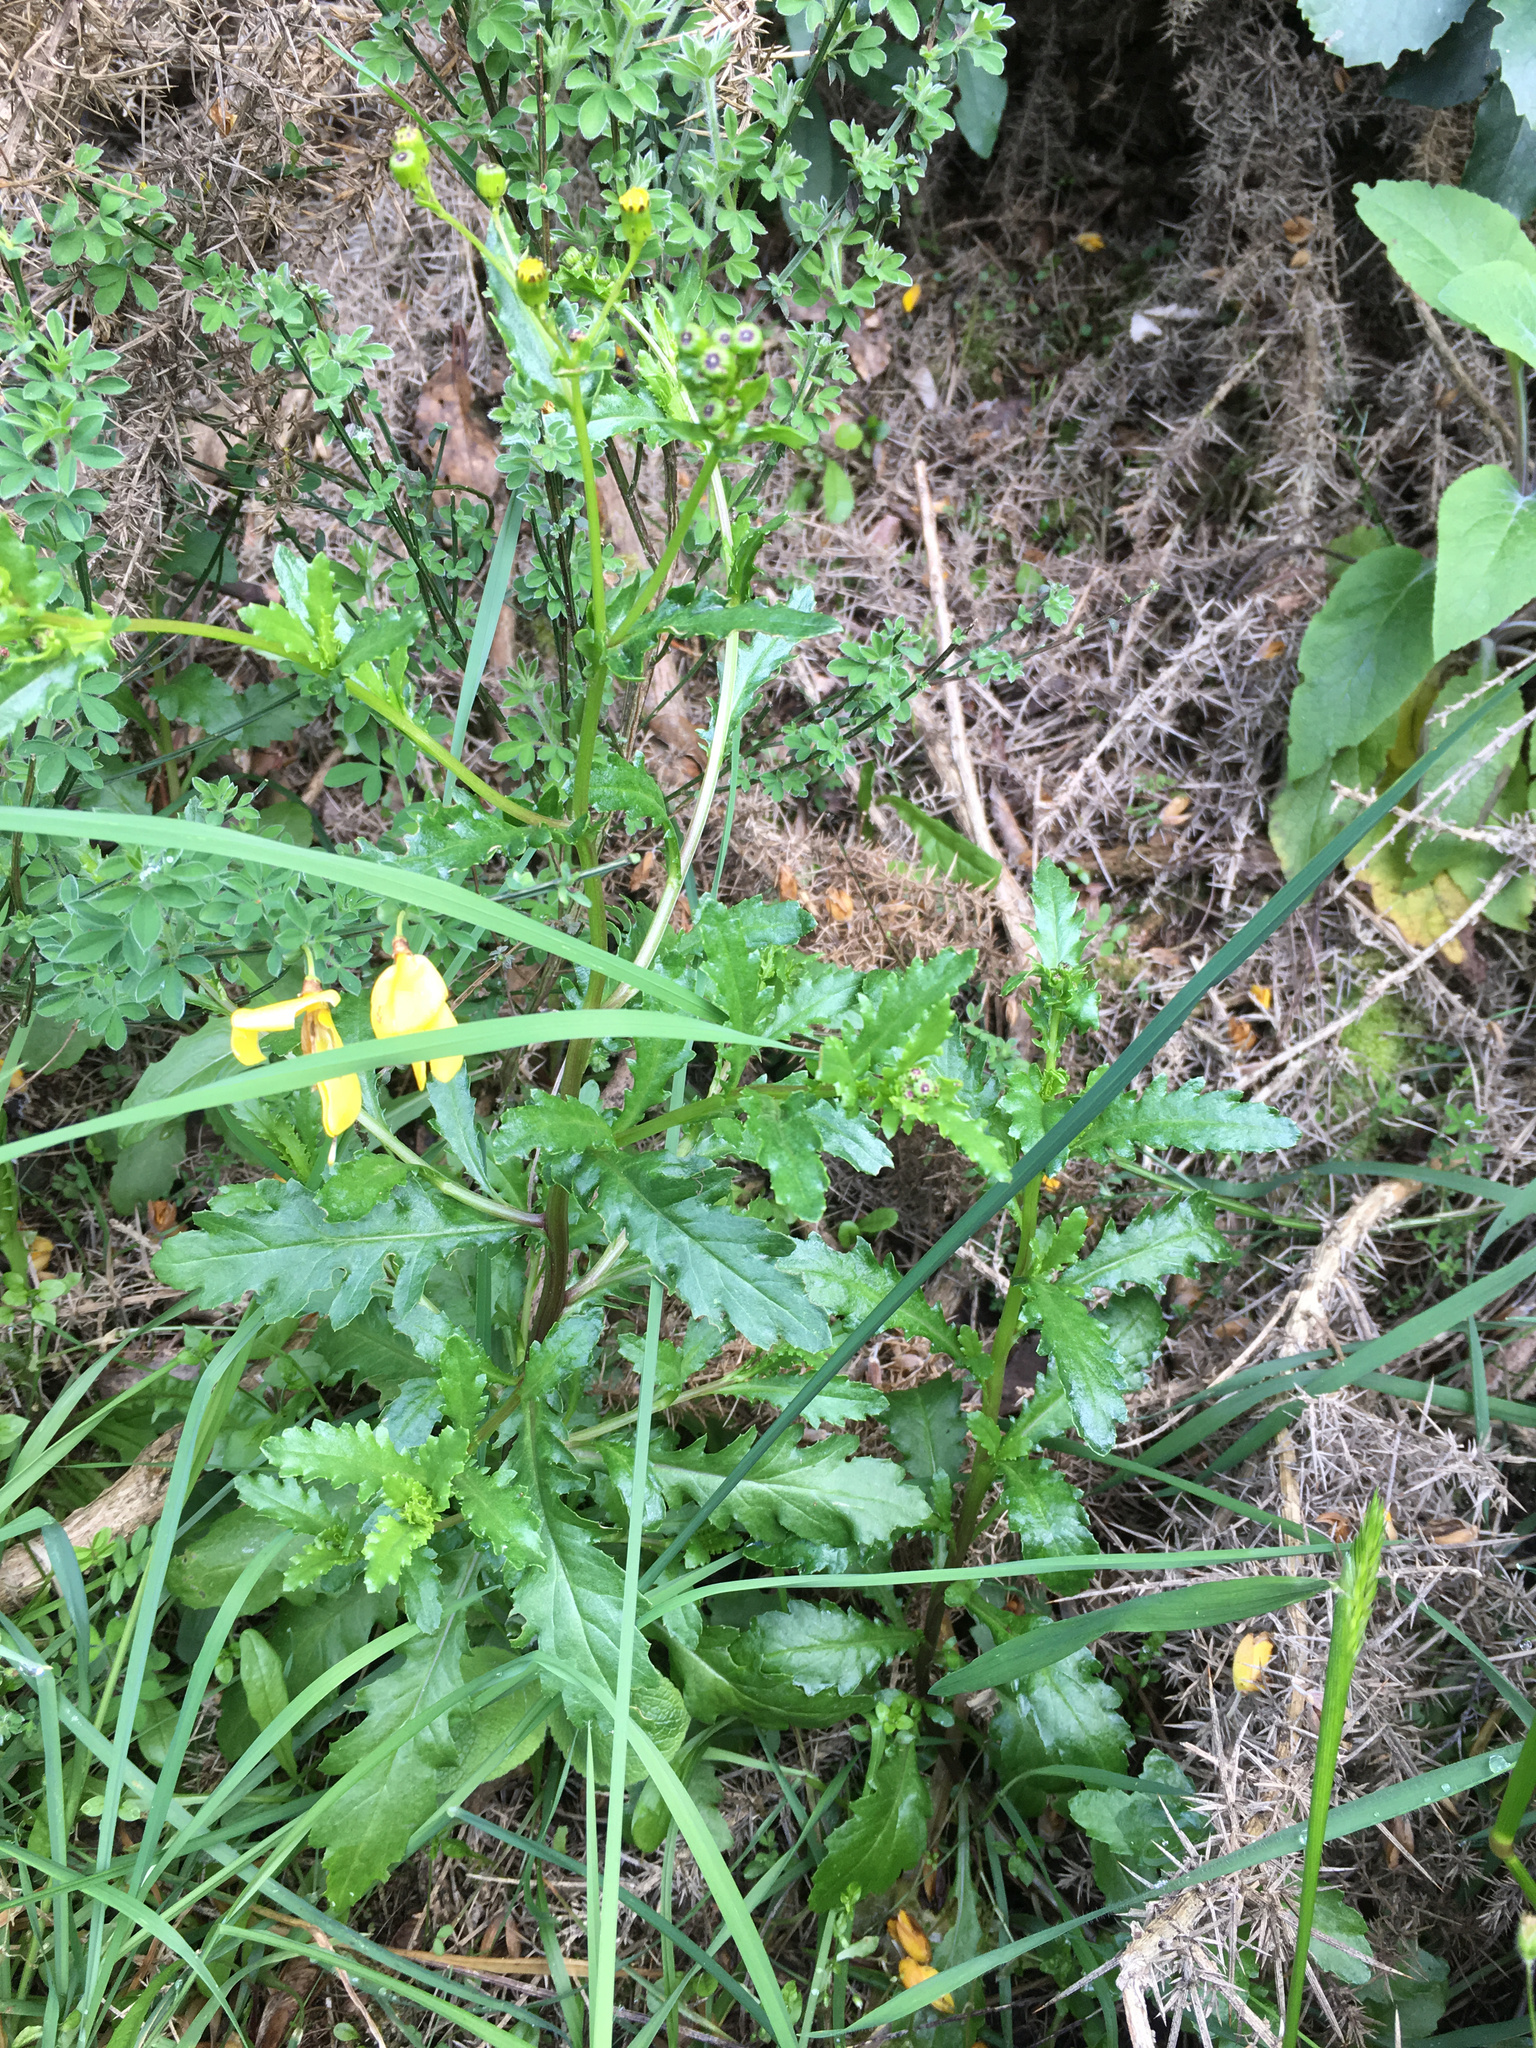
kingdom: Plantae
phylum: Tracheophyta
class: Magnoliopsida
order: Asterales
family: Asteraceae
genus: Senecio
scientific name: Senecio matatini
